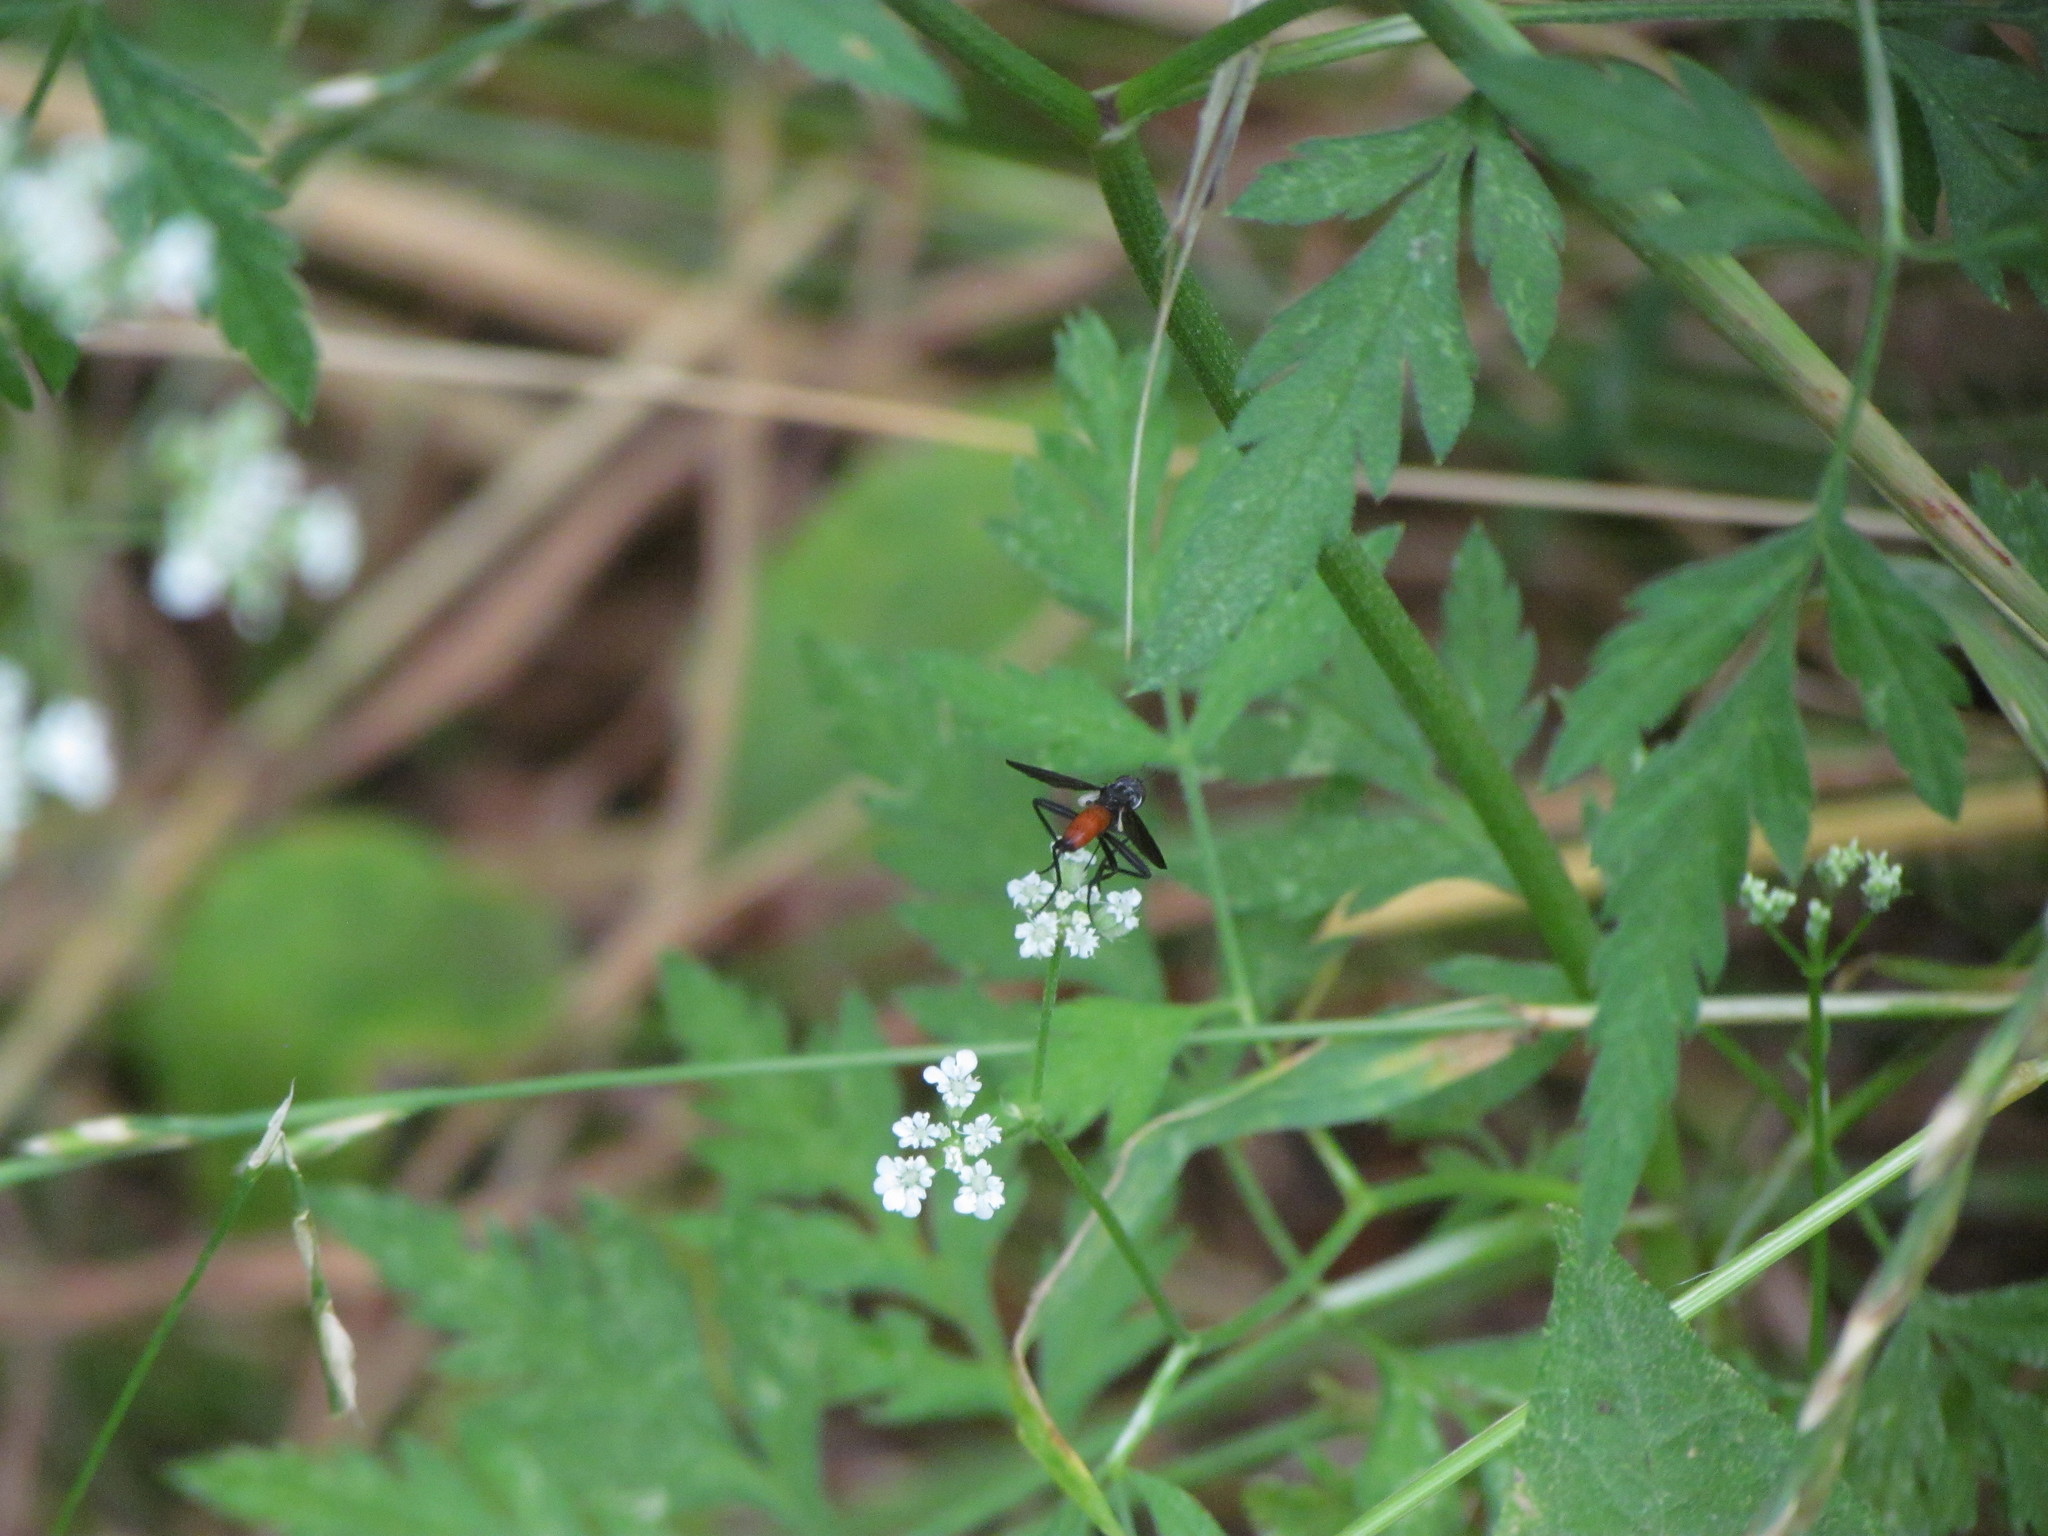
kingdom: Animalia
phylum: Arthropoda
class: Insecta
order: Diptera
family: Tachinidae
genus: Beskia
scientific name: Beskia aelops
